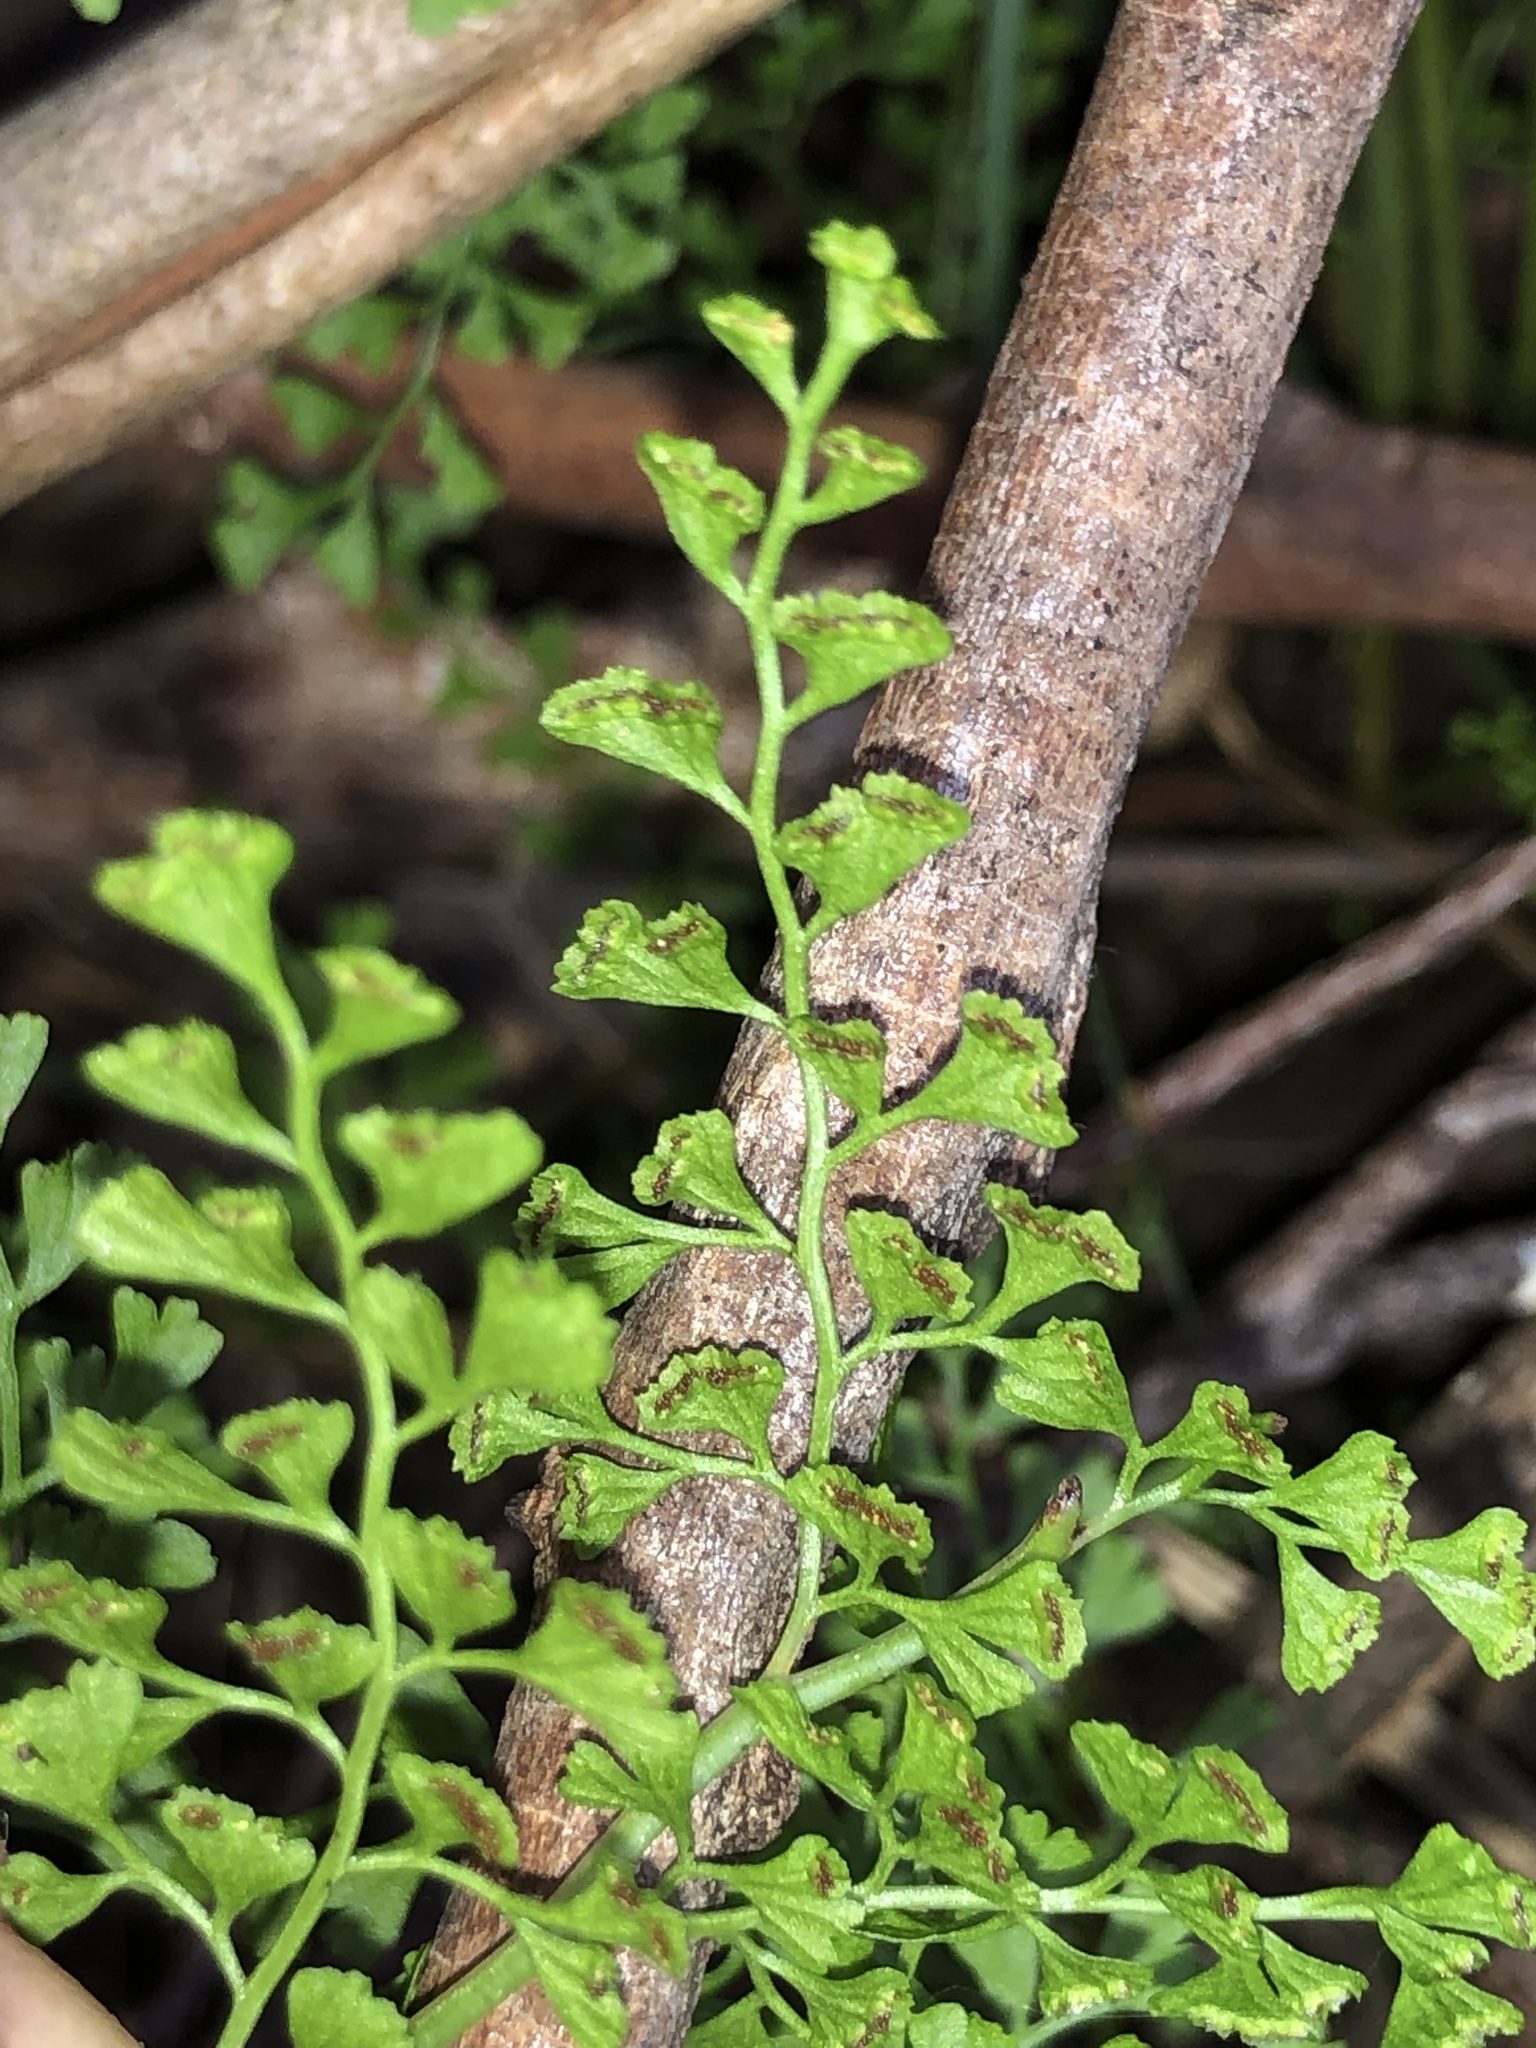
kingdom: Plantae
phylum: Tracheophyta
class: Polypodiopsida
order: Polypodiales
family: Lindsaeaceae
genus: Lindsaea
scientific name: Lindsaea microphylla
